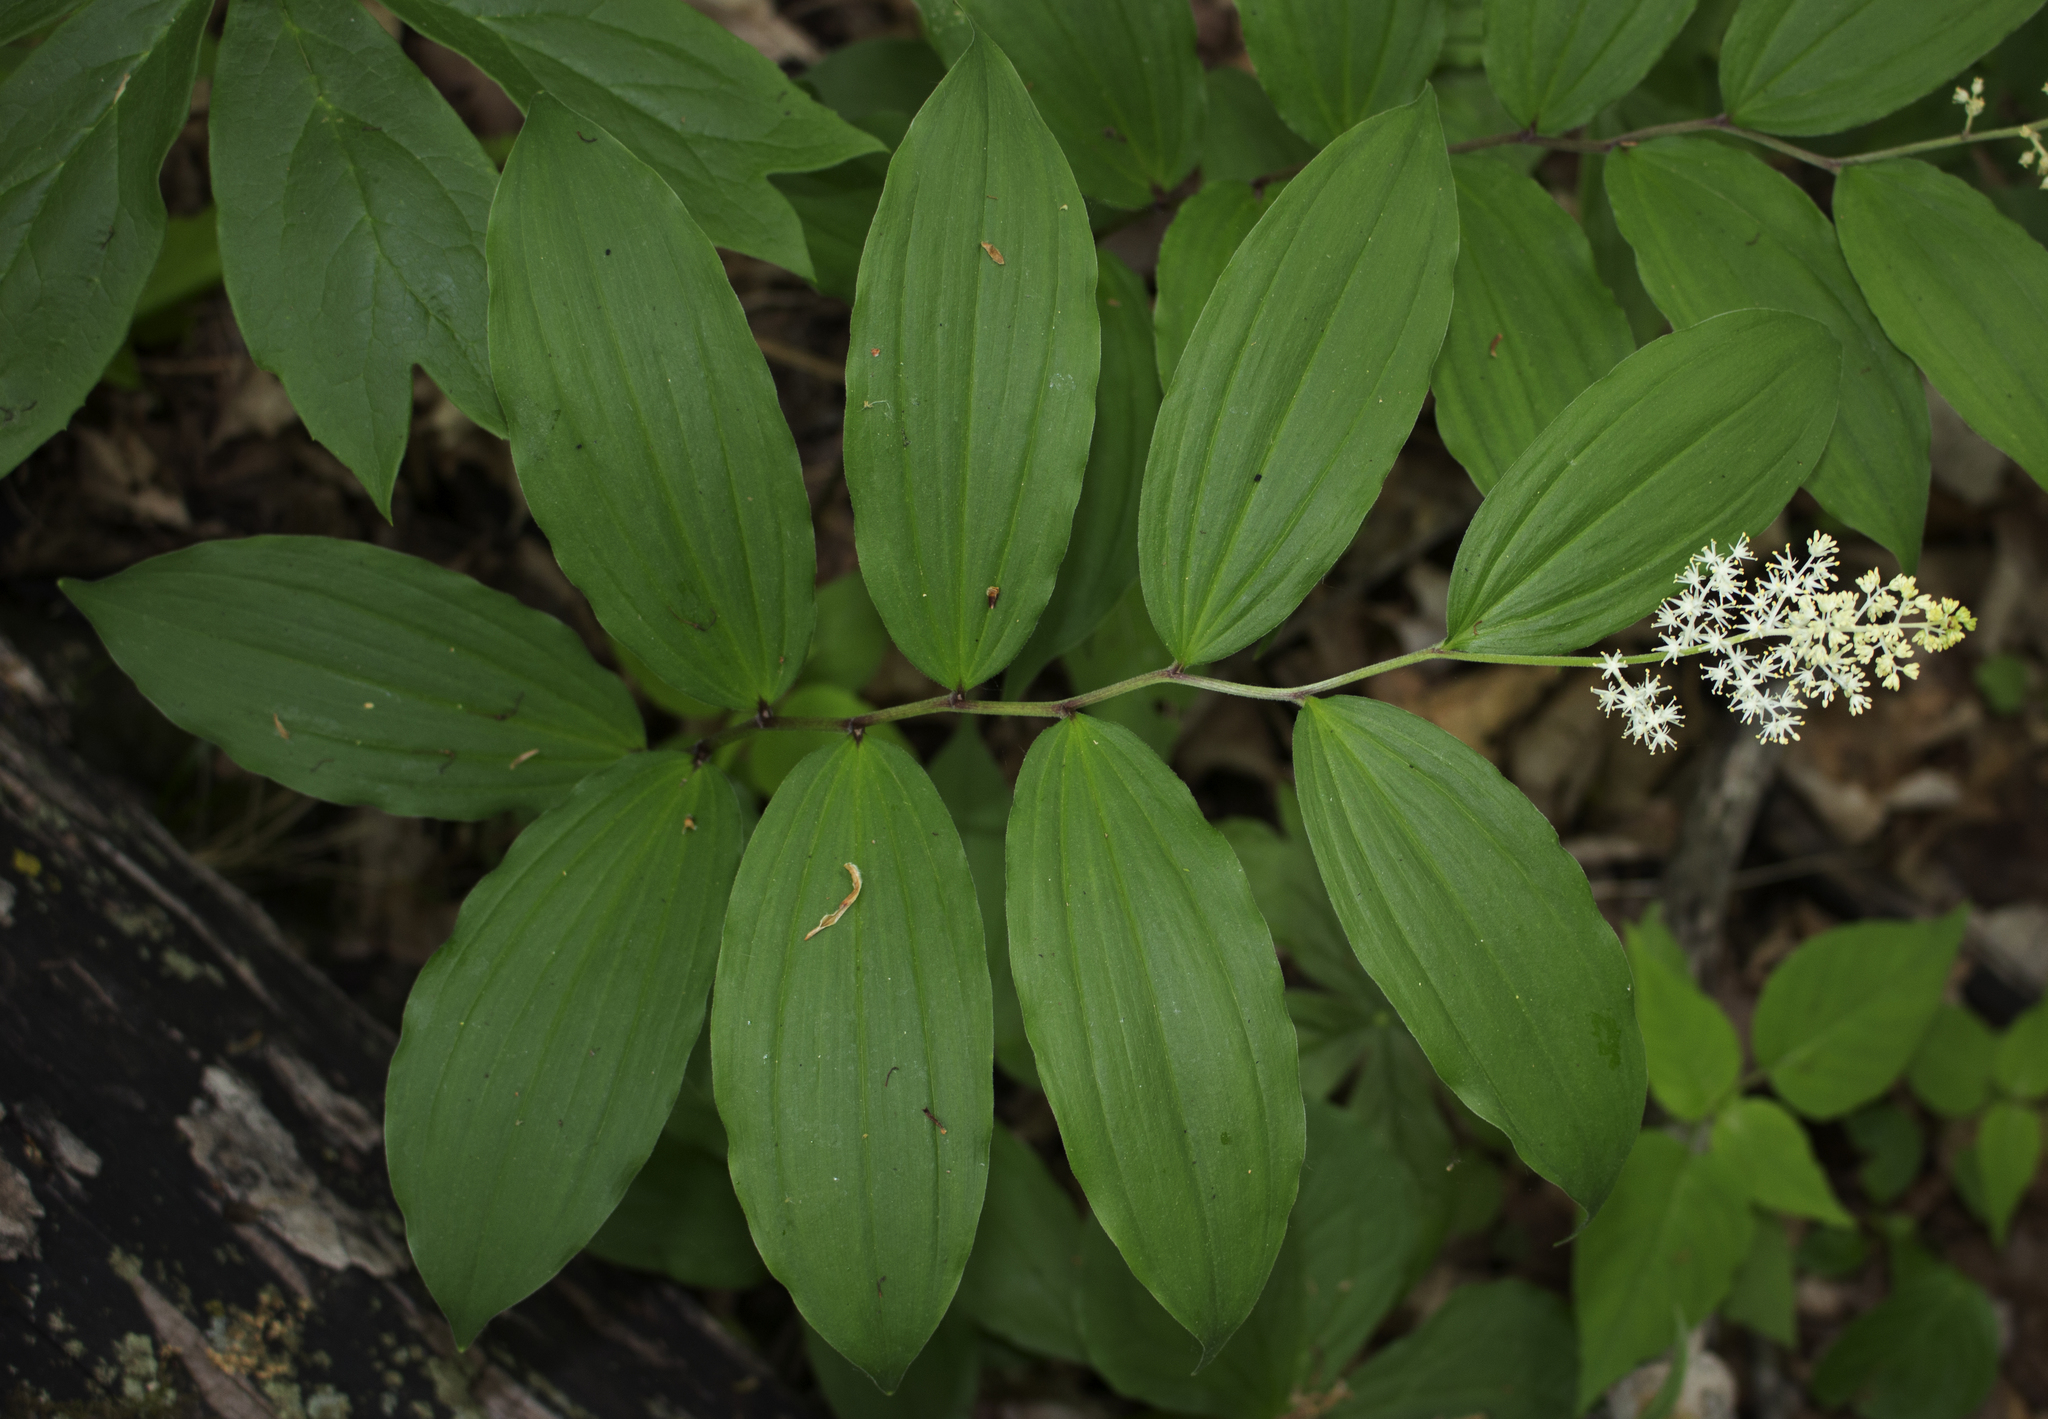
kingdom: Plantae
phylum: Tracheophyta
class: Liliopsida
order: Asparagales
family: Asparagaceae
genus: Maianthemum
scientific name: Maianthemum racemosum
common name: False spikenard
